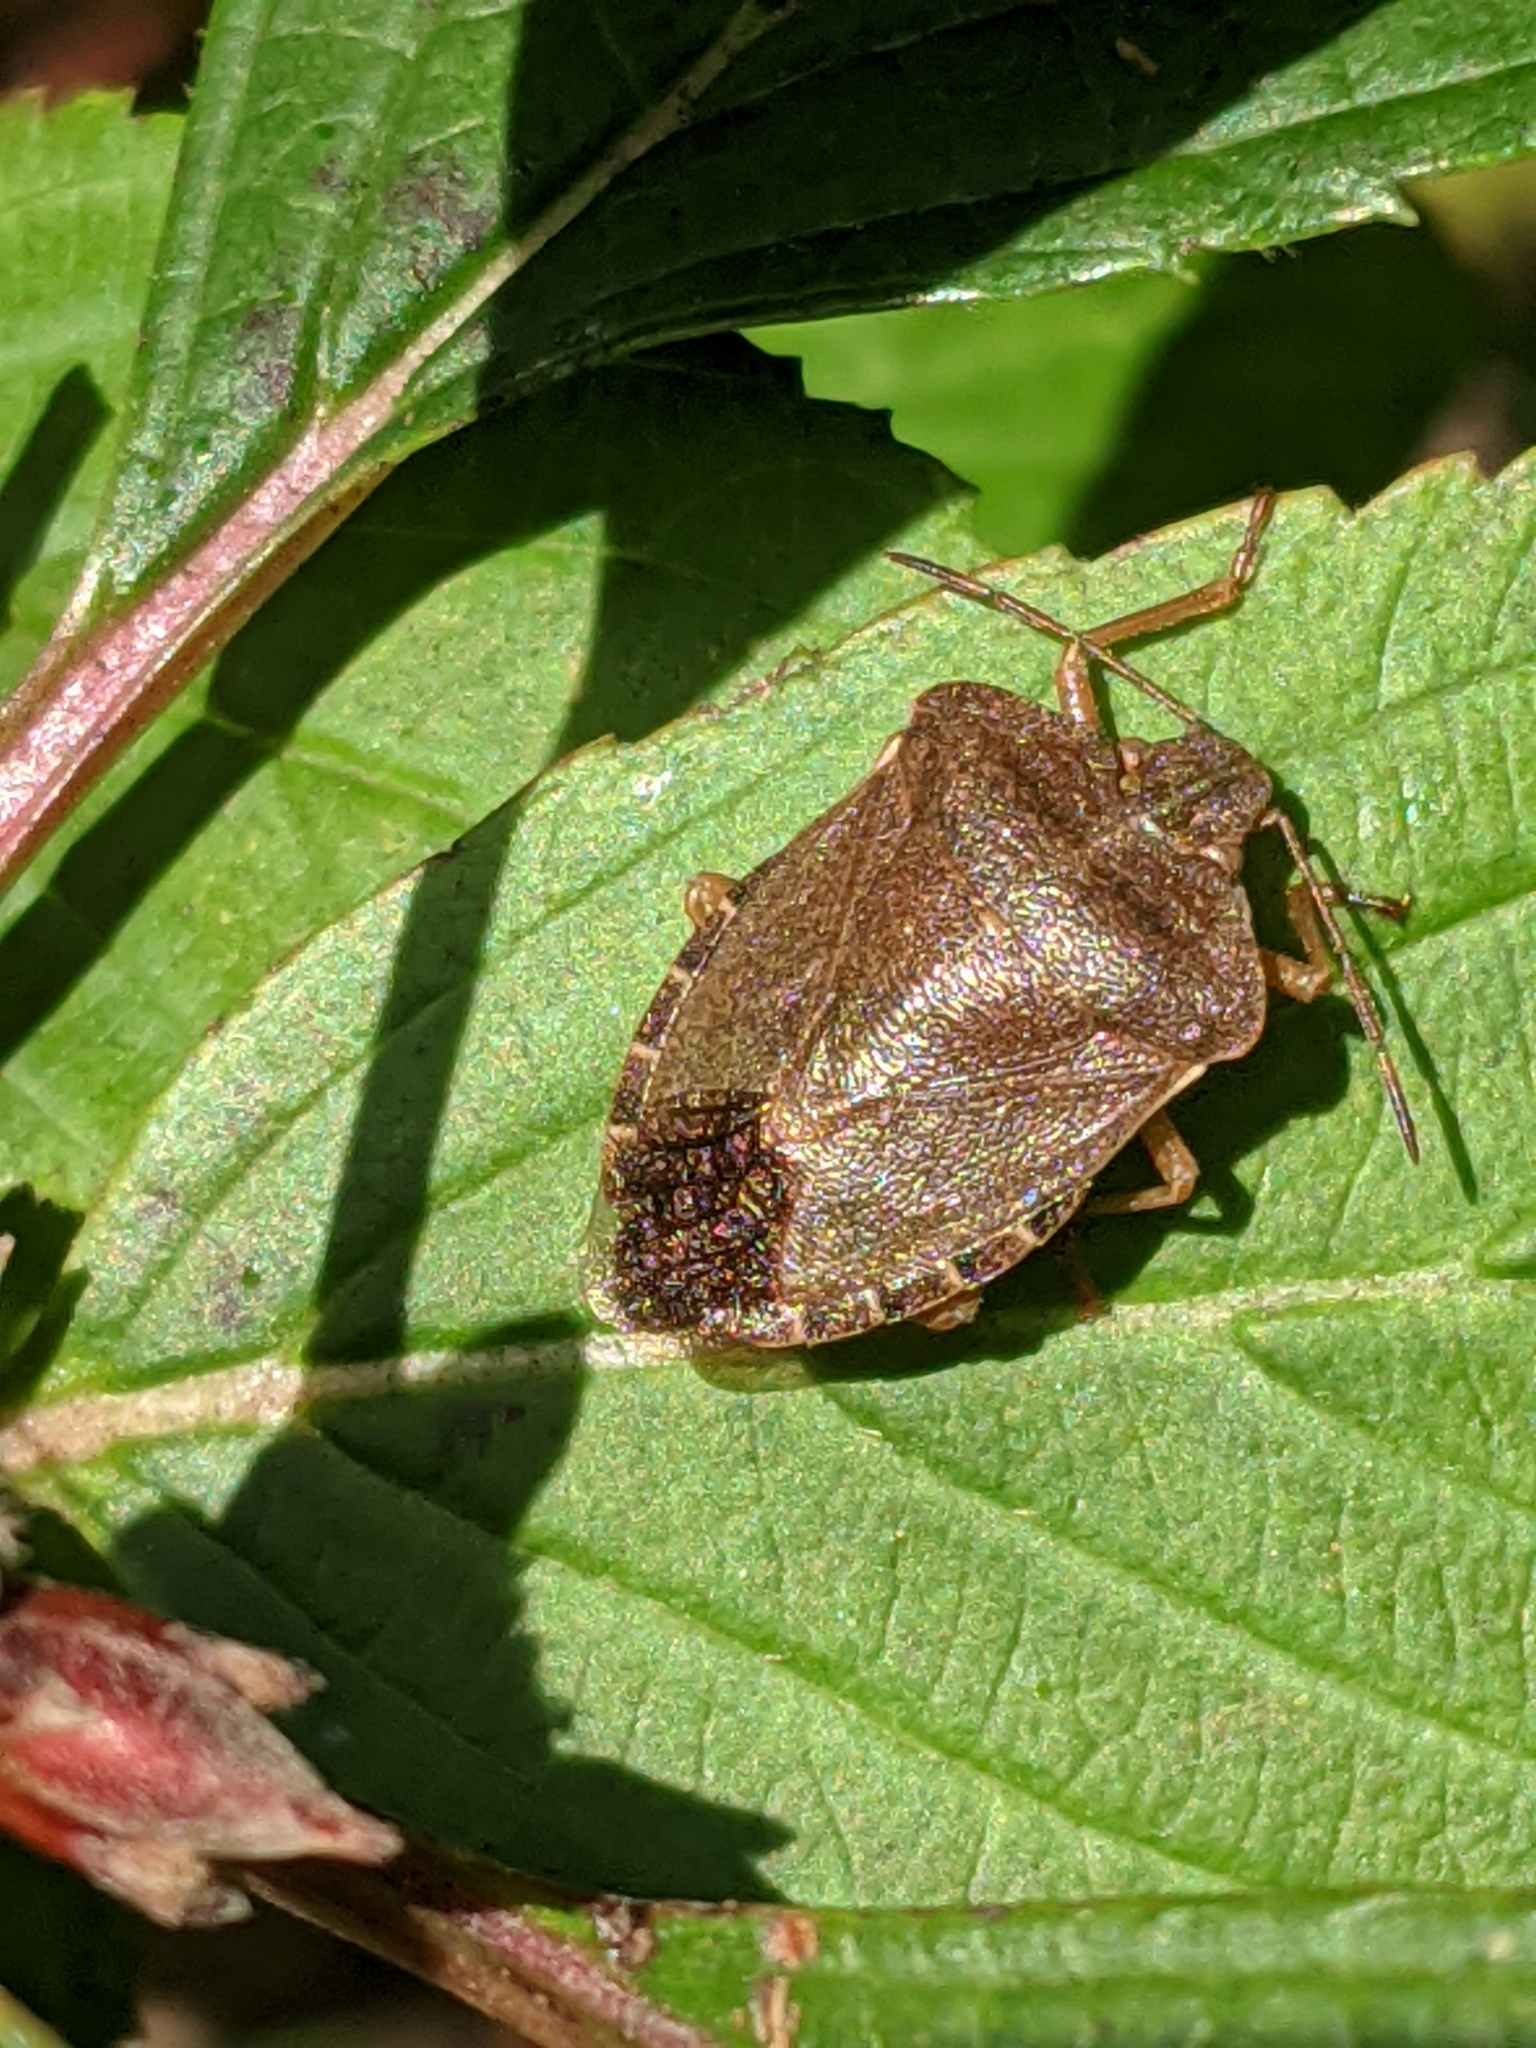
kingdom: Animalia
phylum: Arthropoda
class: Insecta
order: Hemiptera
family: Pentatomidae
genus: Palomena
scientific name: Palomena prasina
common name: Green shieldbug
